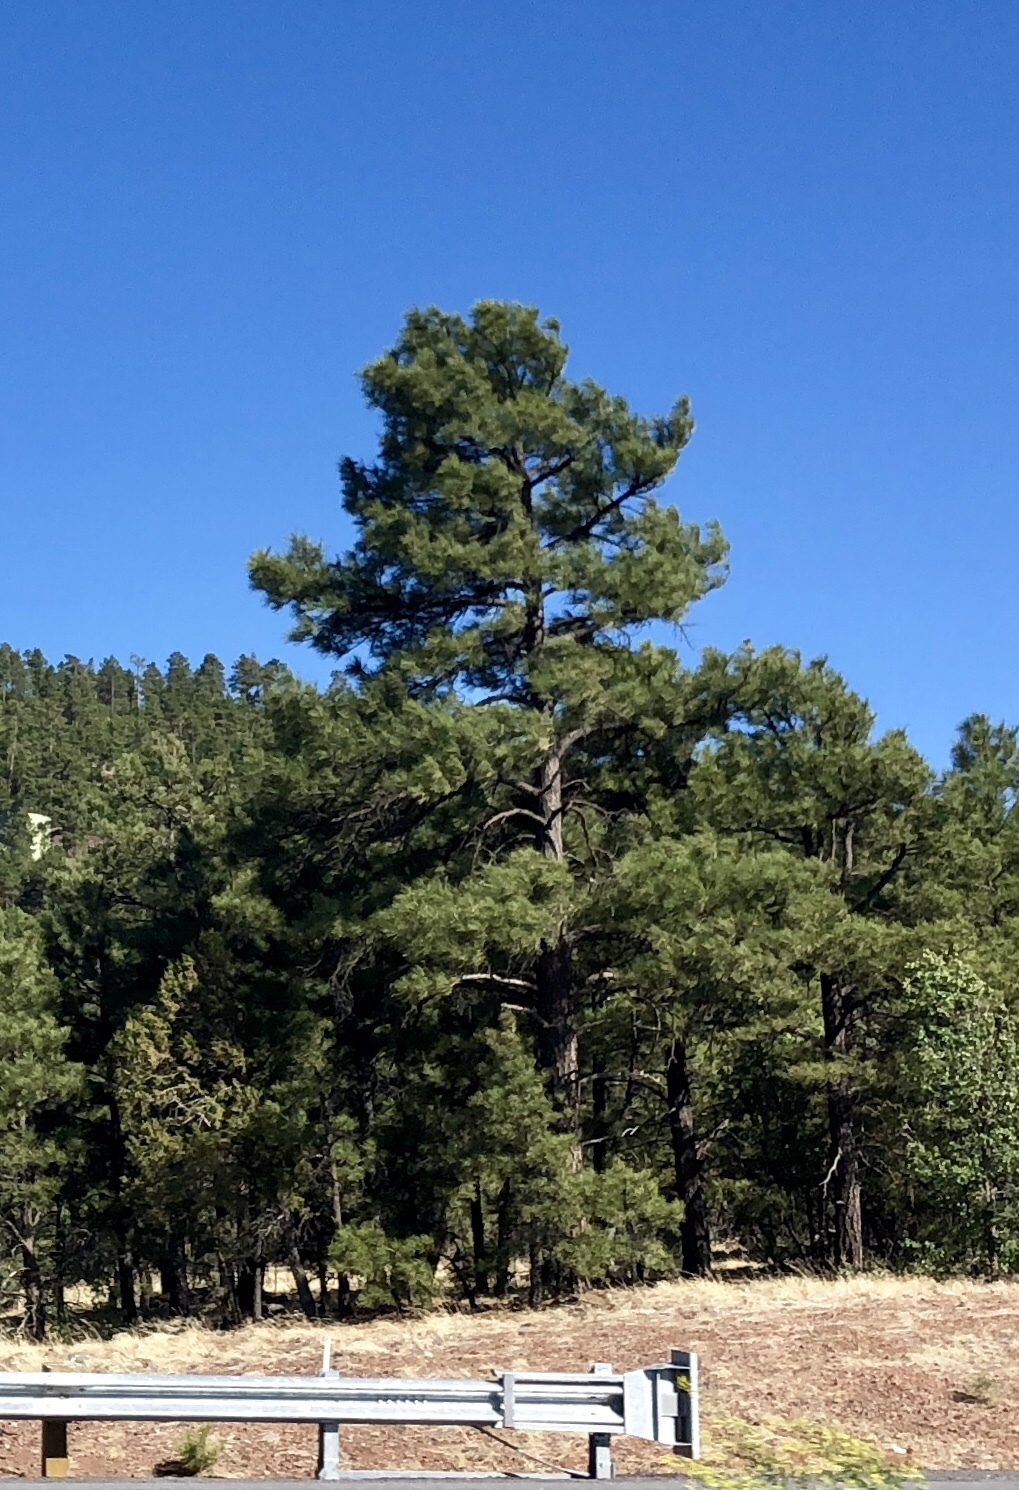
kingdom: Plantae
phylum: Tracheophyta
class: Pinopsida
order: Pinales
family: Pinaceae
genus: Pinus
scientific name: Pinus ponderosa
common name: Western yellow-pine
